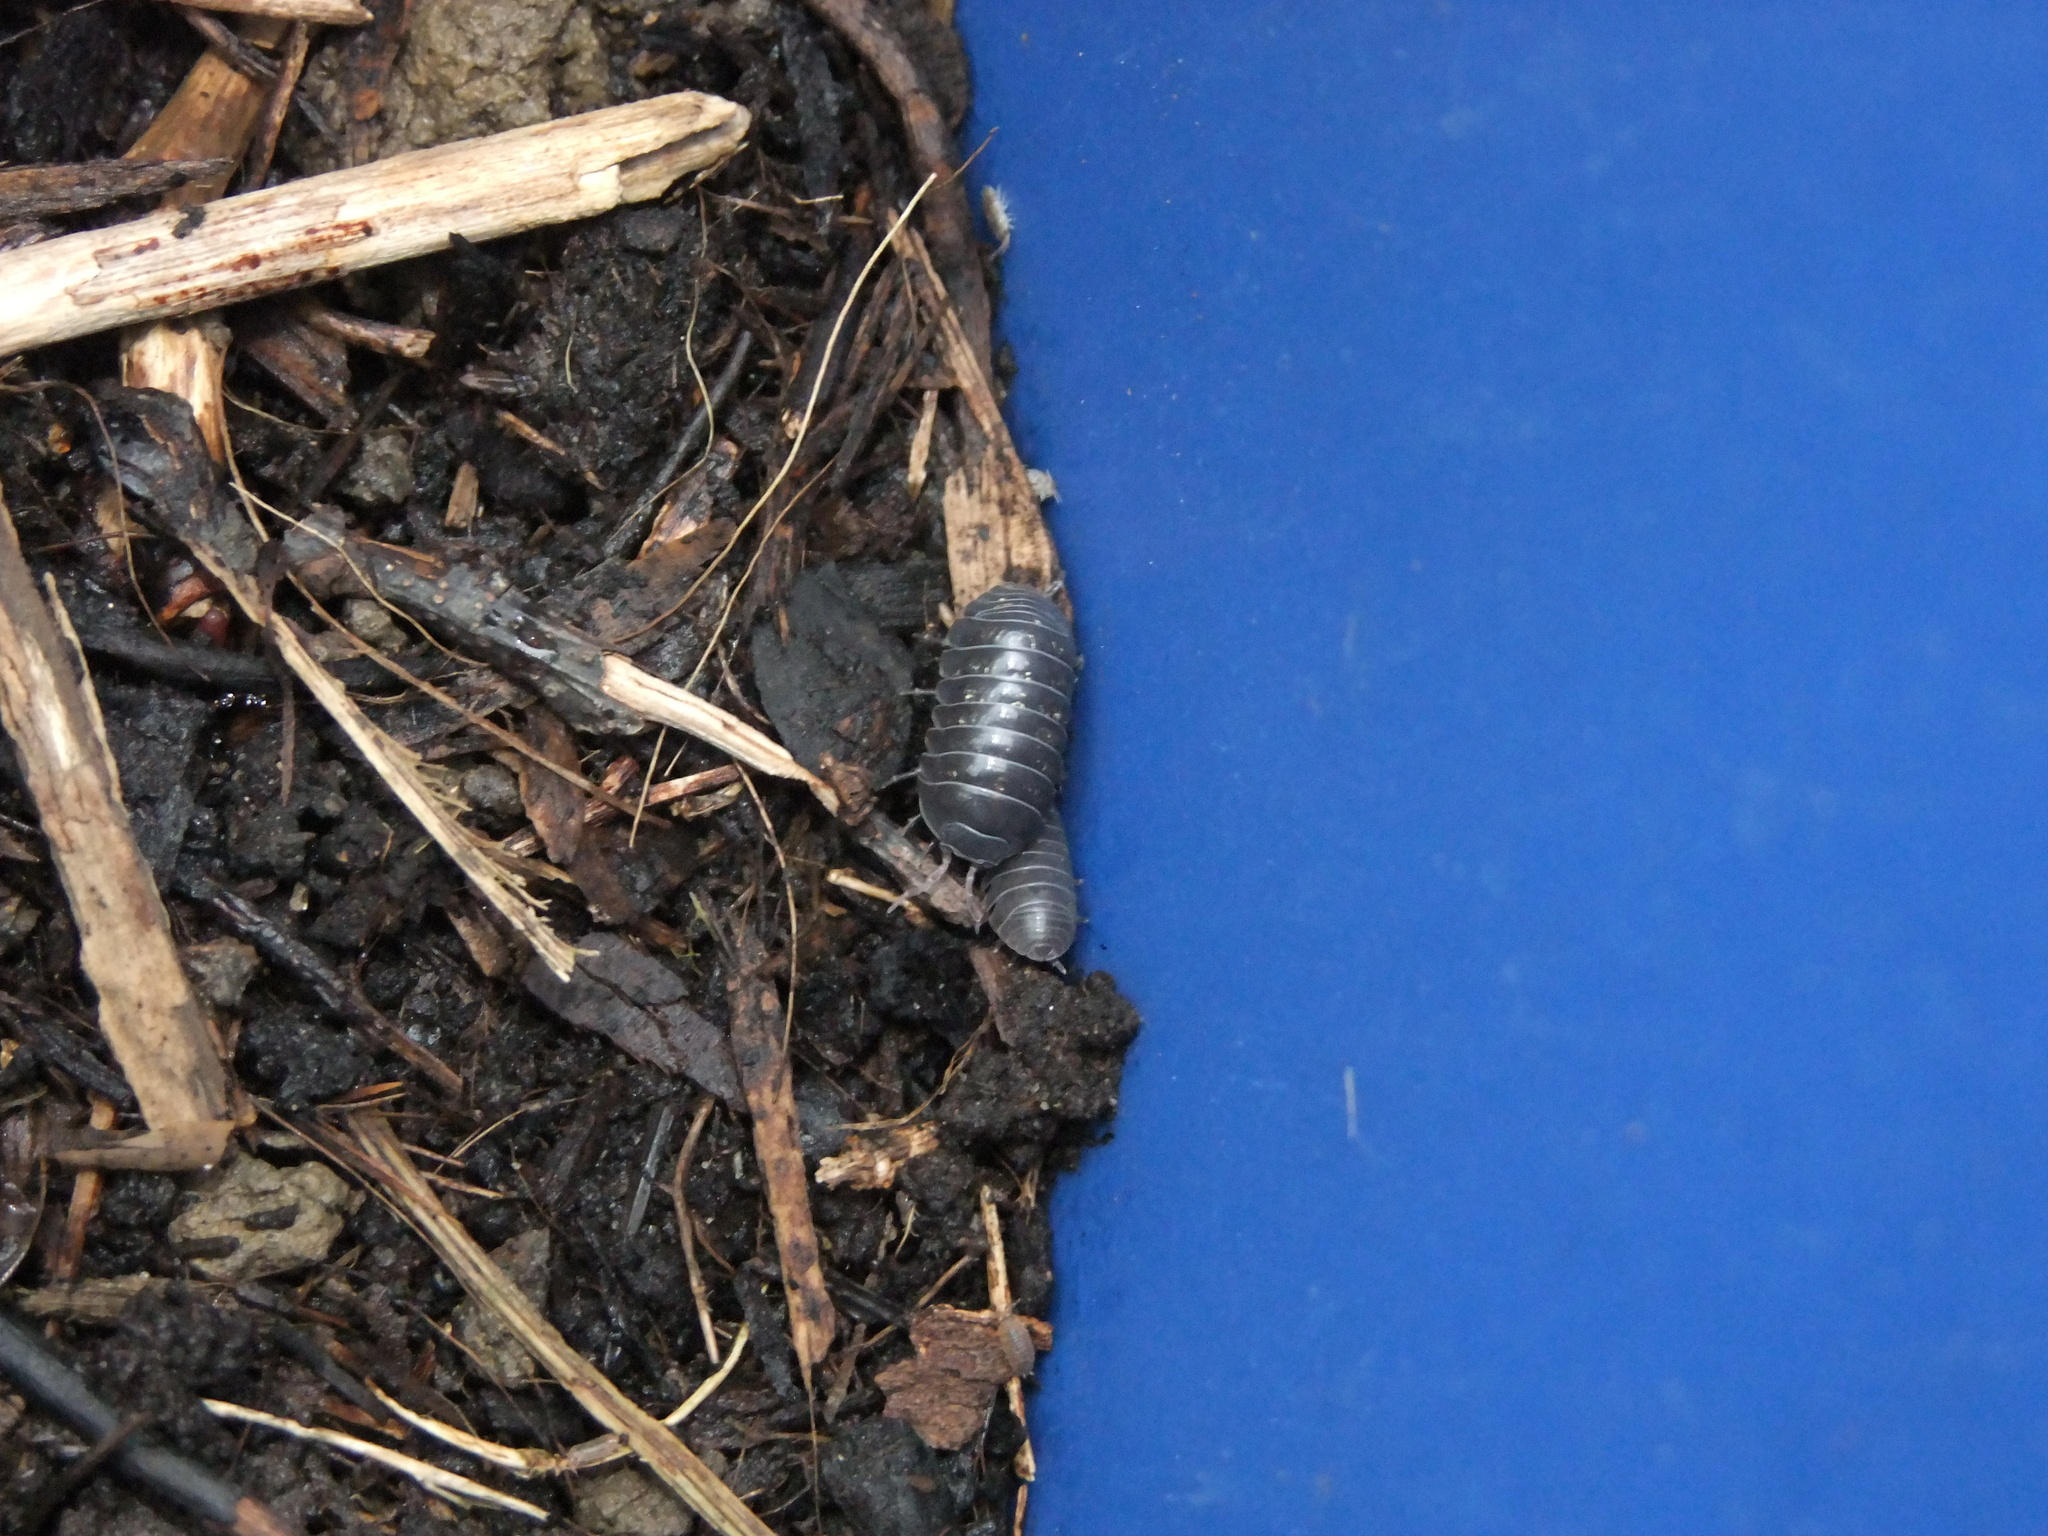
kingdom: Animalia
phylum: Arthropoda
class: Malacostraca
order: Isopoda
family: Armadillidiidae
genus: Armadillidium
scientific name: Armadillidium vulgare
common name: Common pill woodlouse
